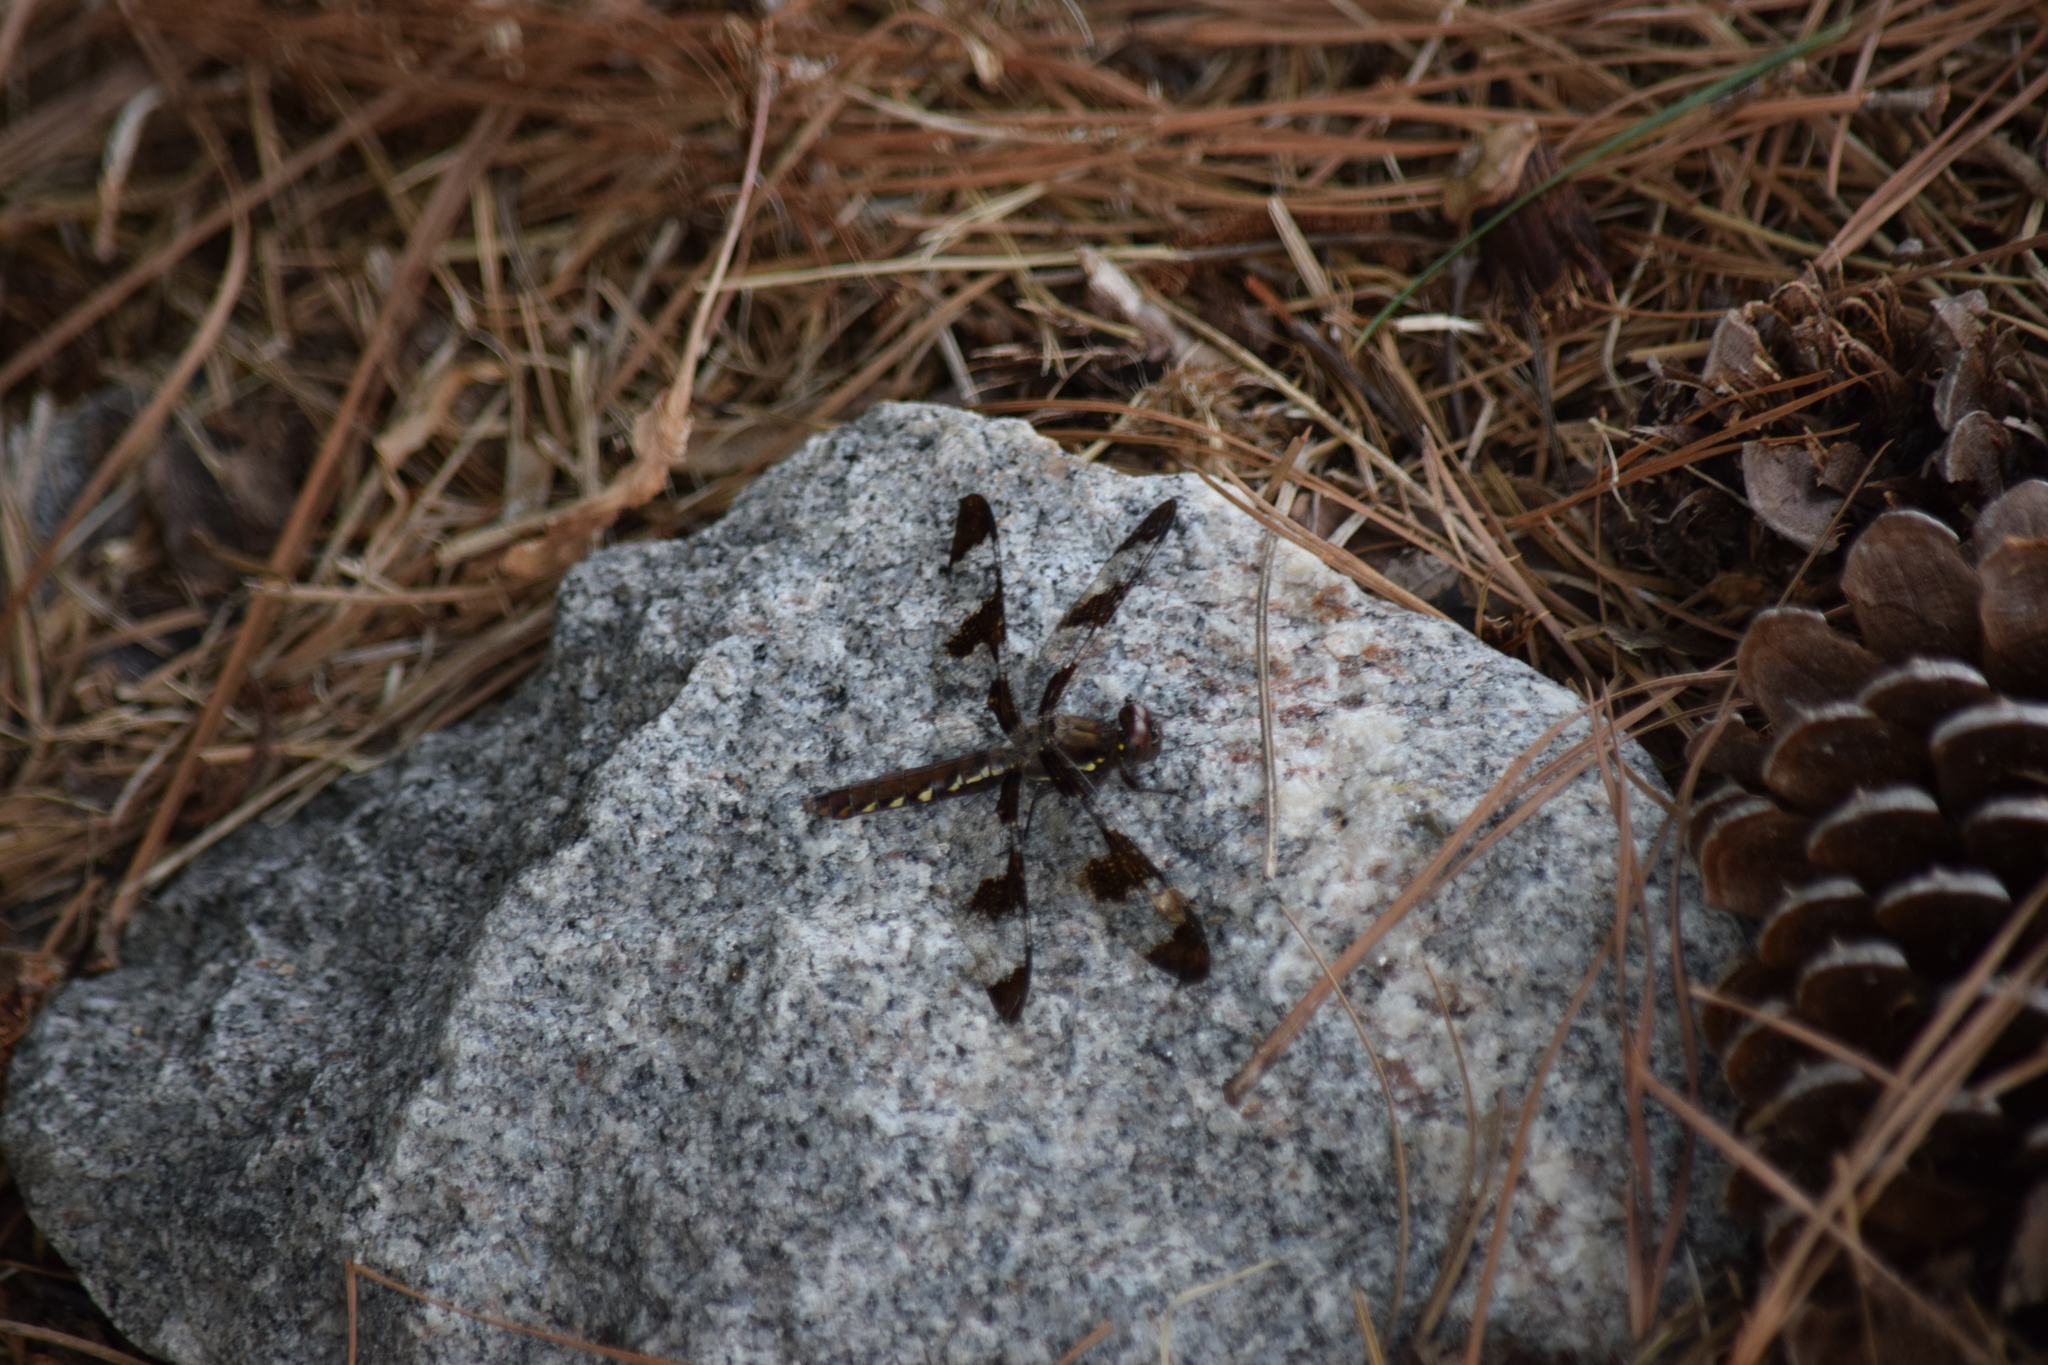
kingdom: Animalia
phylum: Arthropoda
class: Insecta
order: Odonata
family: Libellulidae
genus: Plathemis
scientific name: Plathemis lydia
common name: Common whitetail
